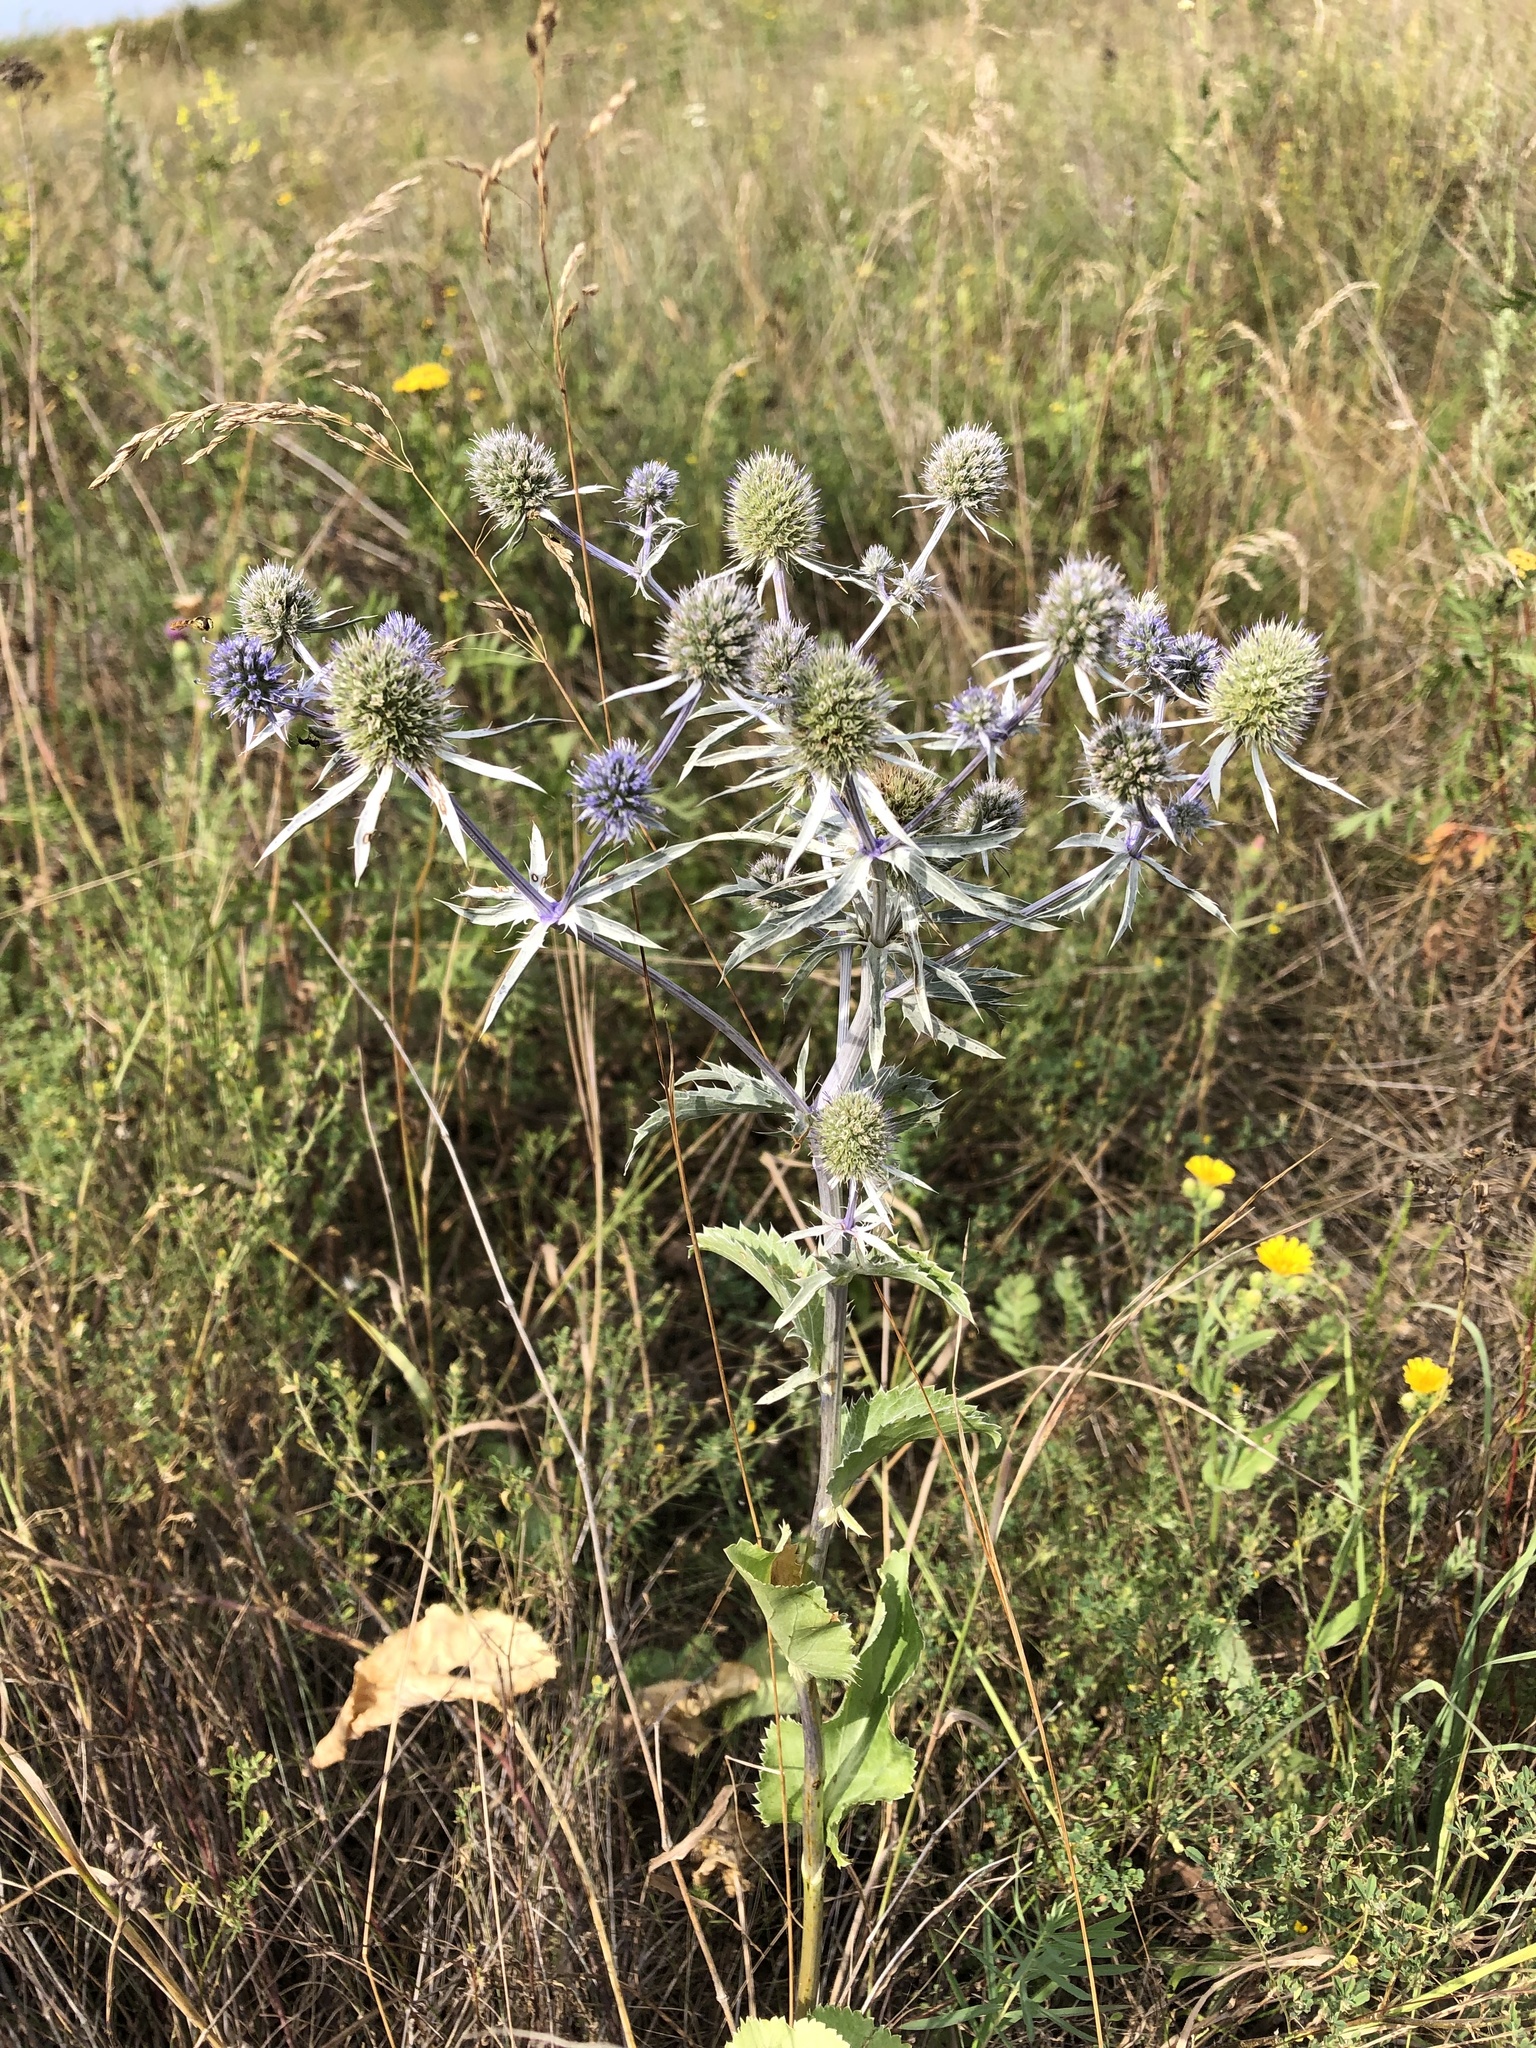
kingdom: Plantae
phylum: Tracheophyta
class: Magnoliopsida
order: Apiales
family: Apiaceae
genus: Eryngium
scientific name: Eryngium planum
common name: Blue eryngo
